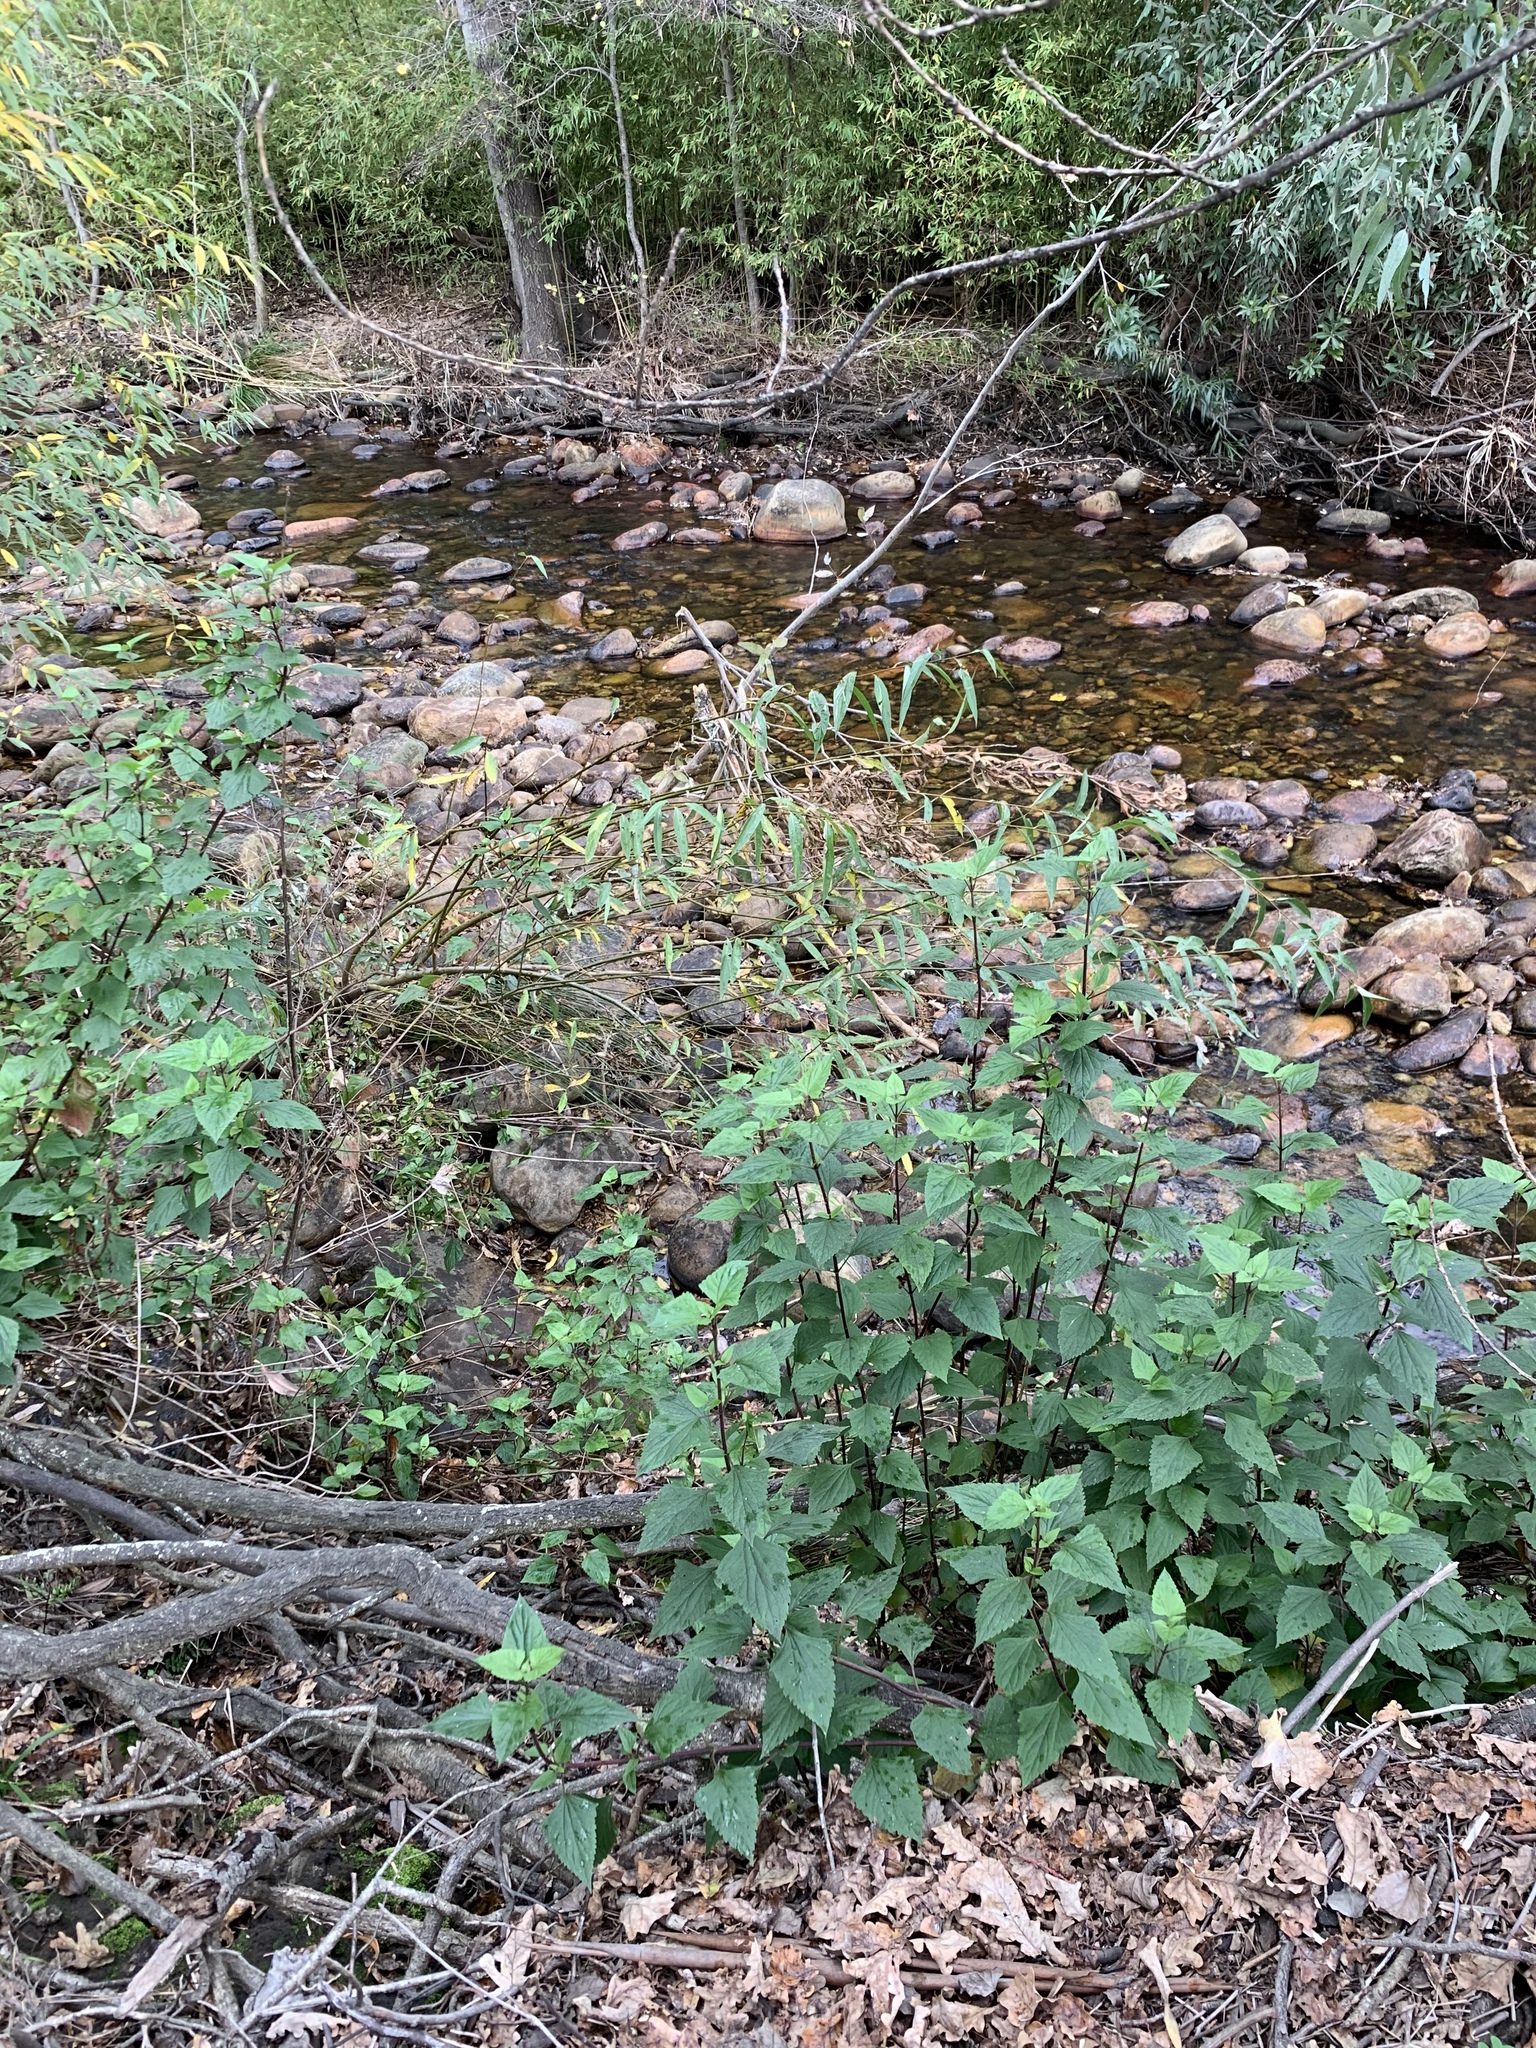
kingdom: Plantae
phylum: Tracheophyta
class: Magnoliopsida
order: Asterales
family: Asteraceae
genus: Ageratina
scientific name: Ageratina adenophora
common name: Sticky snakeroot
